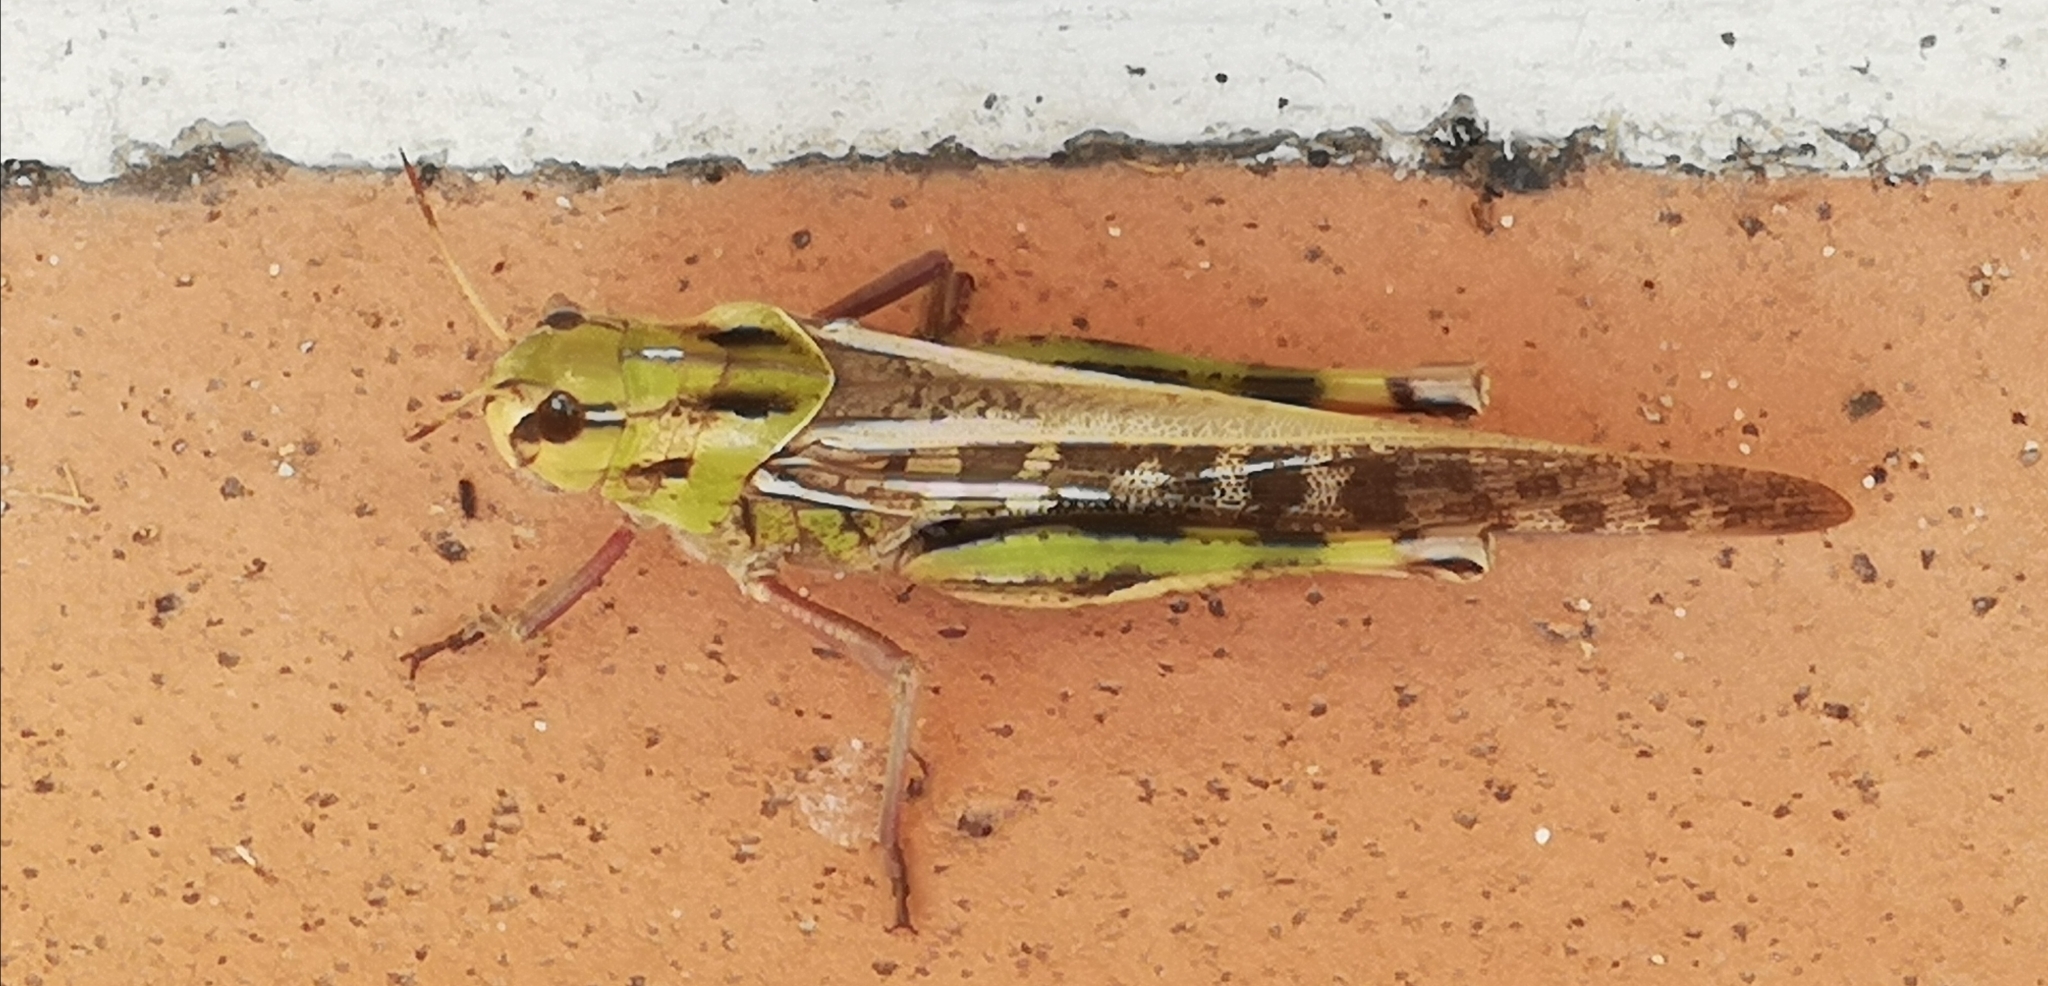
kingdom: Animalia
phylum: Arthropoda
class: Insecta
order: Orthoptera
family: Acrididae
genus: Locusta
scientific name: Locusta migratoria
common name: Migratory locust
